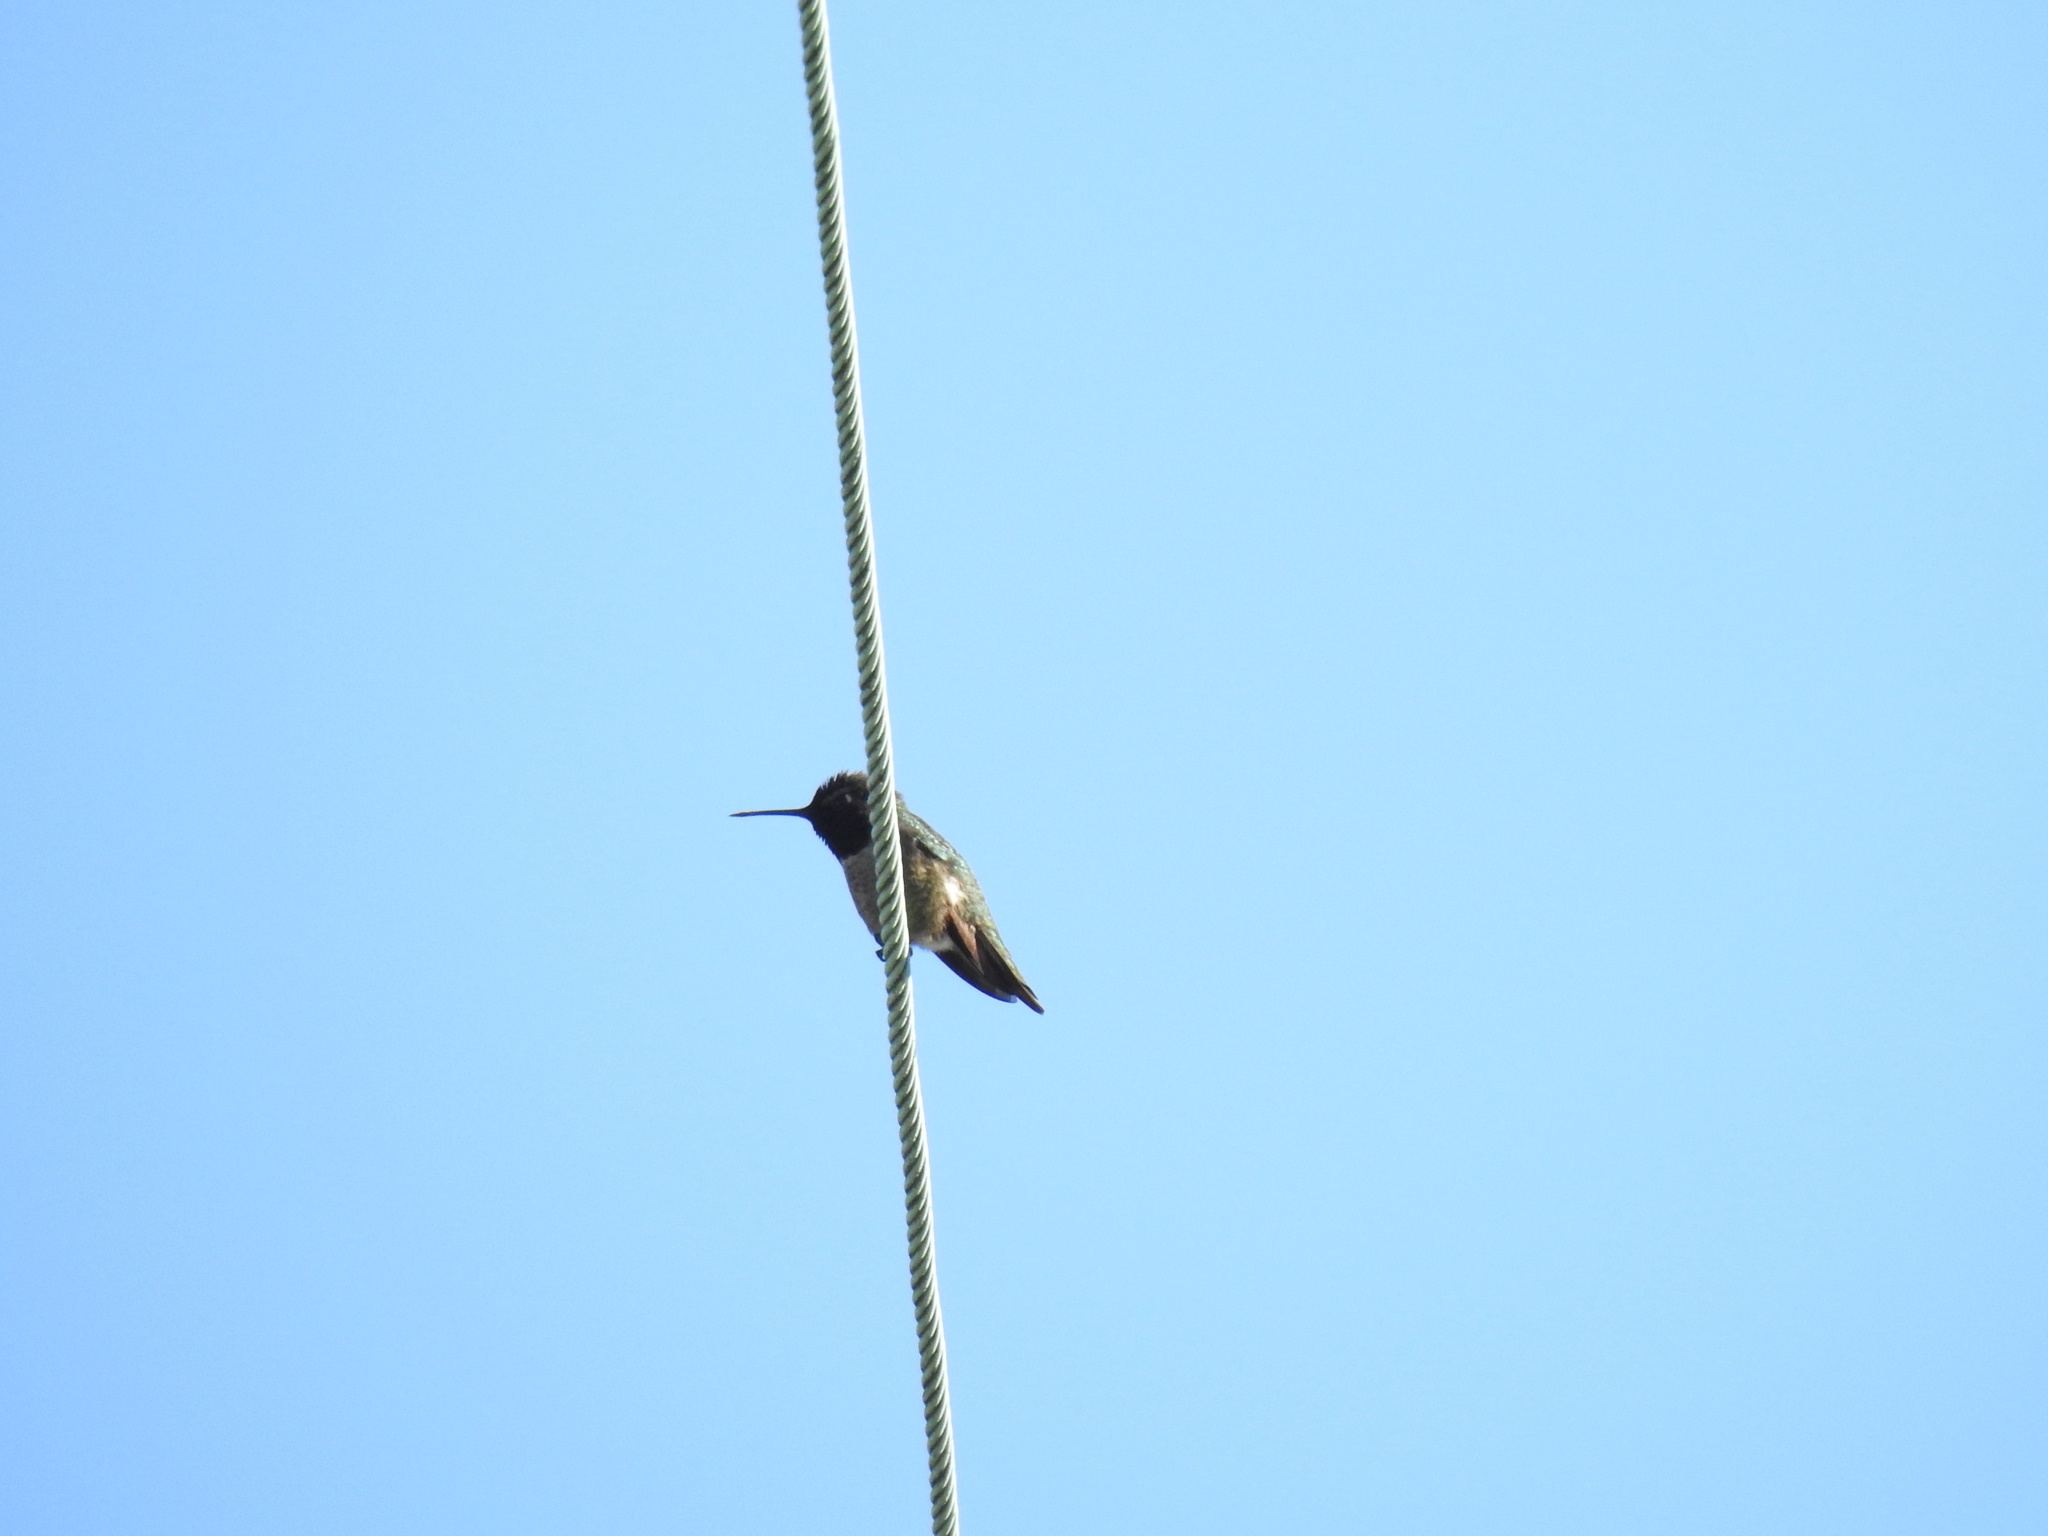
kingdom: Animalia
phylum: Chordata
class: Aves
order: Apodiformes
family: Trochilidae
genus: Calypte
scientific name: Calypte anna
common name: Anna's hummingbird
